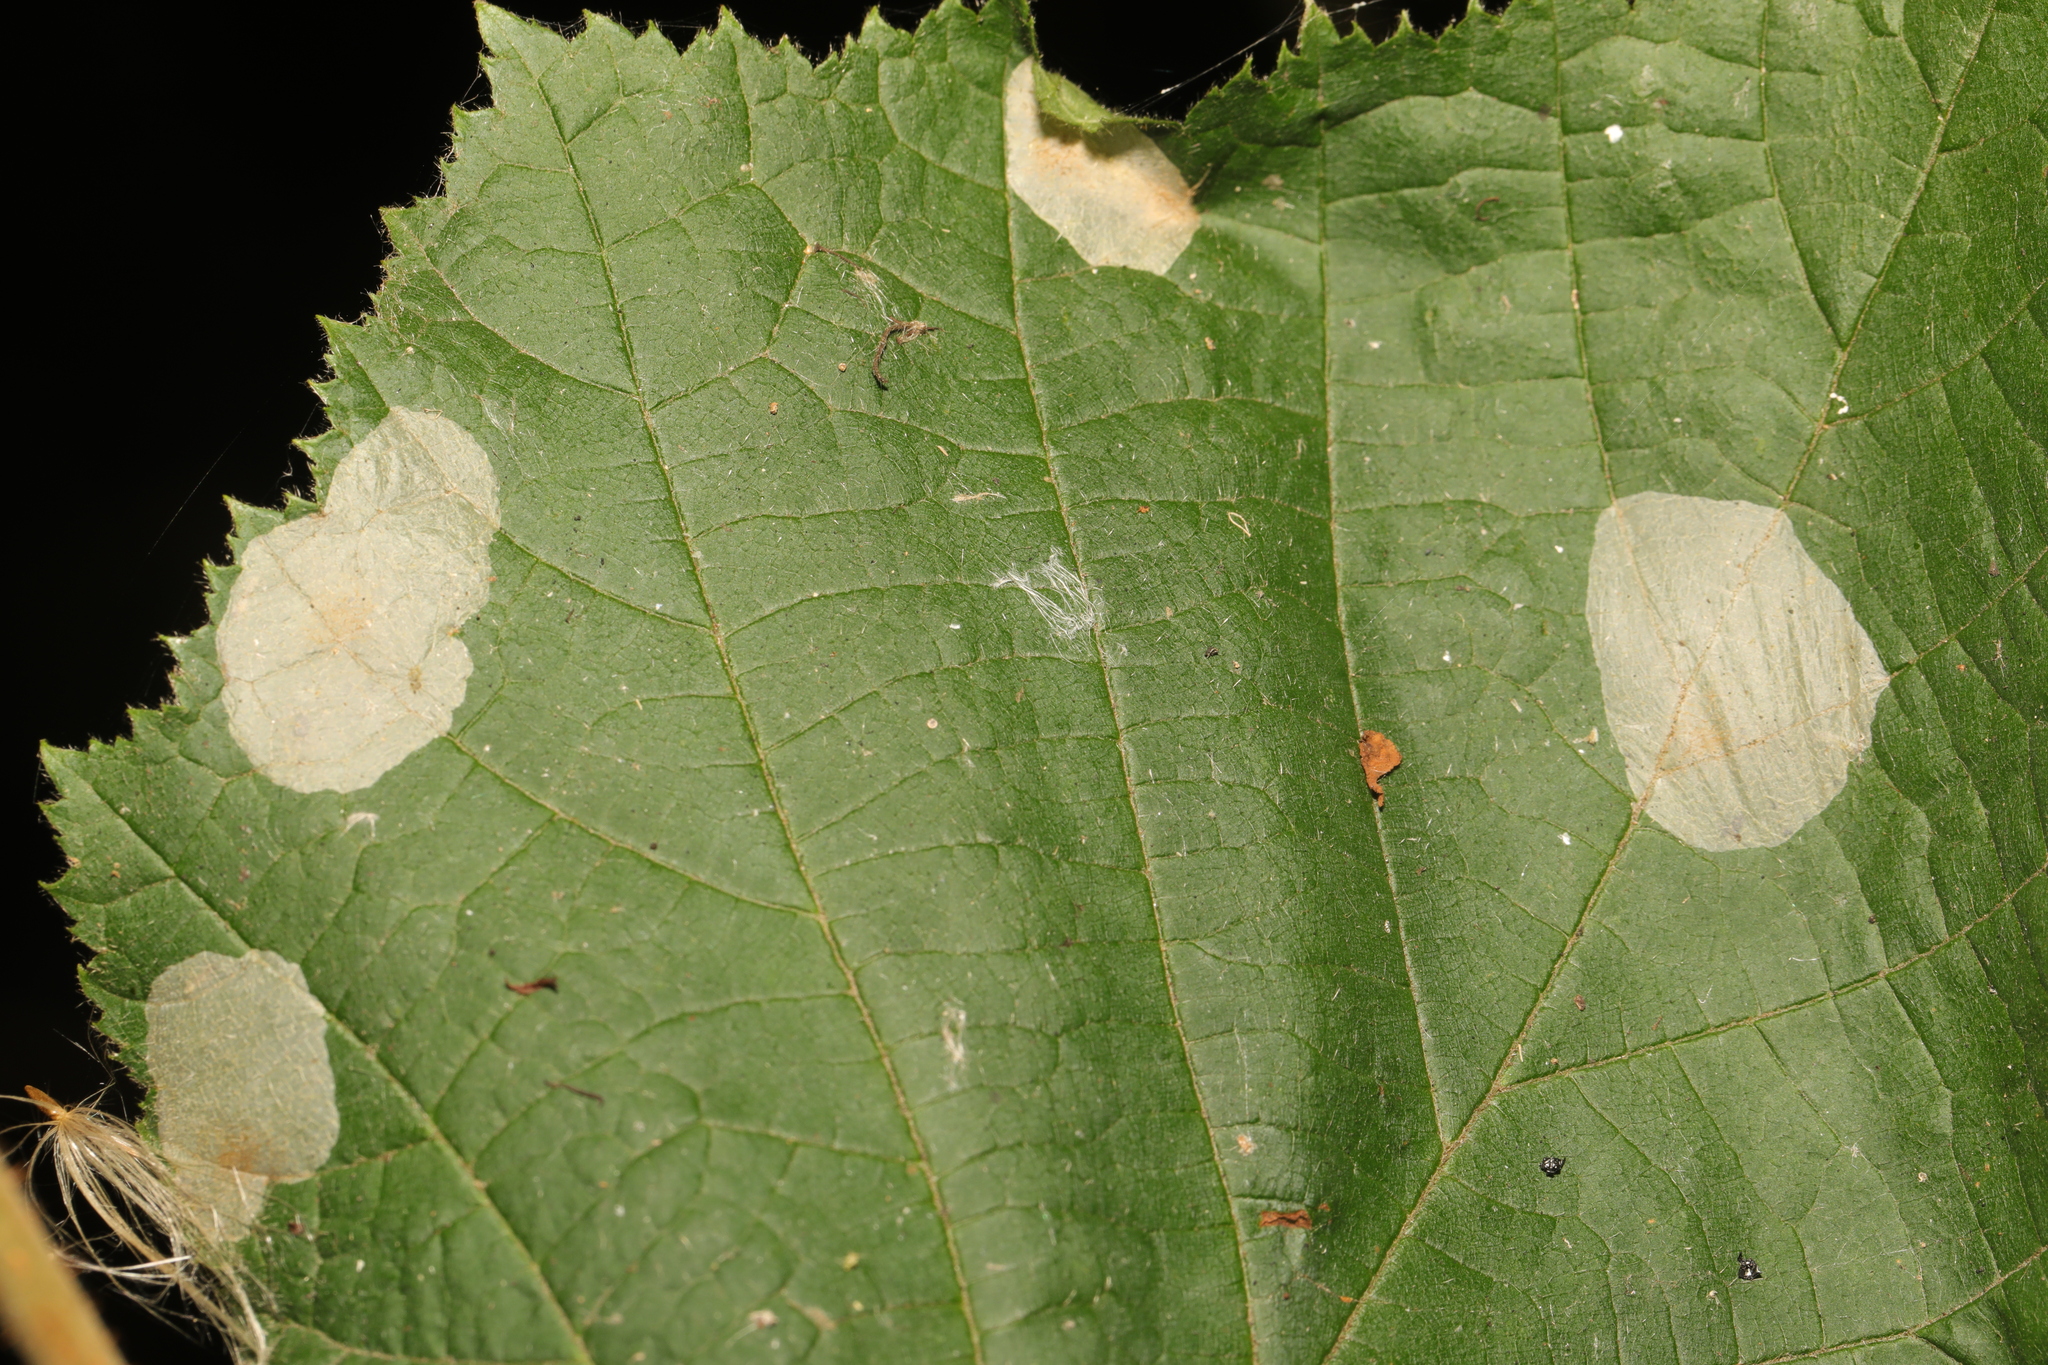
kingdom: Animalia
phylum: Arthropoda
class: Insecta
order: Lepidoptera
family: Gracillariidae
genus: Phyllonorycter
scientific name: Phyllonorycter coryli
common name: Nut-leaf blister moth
